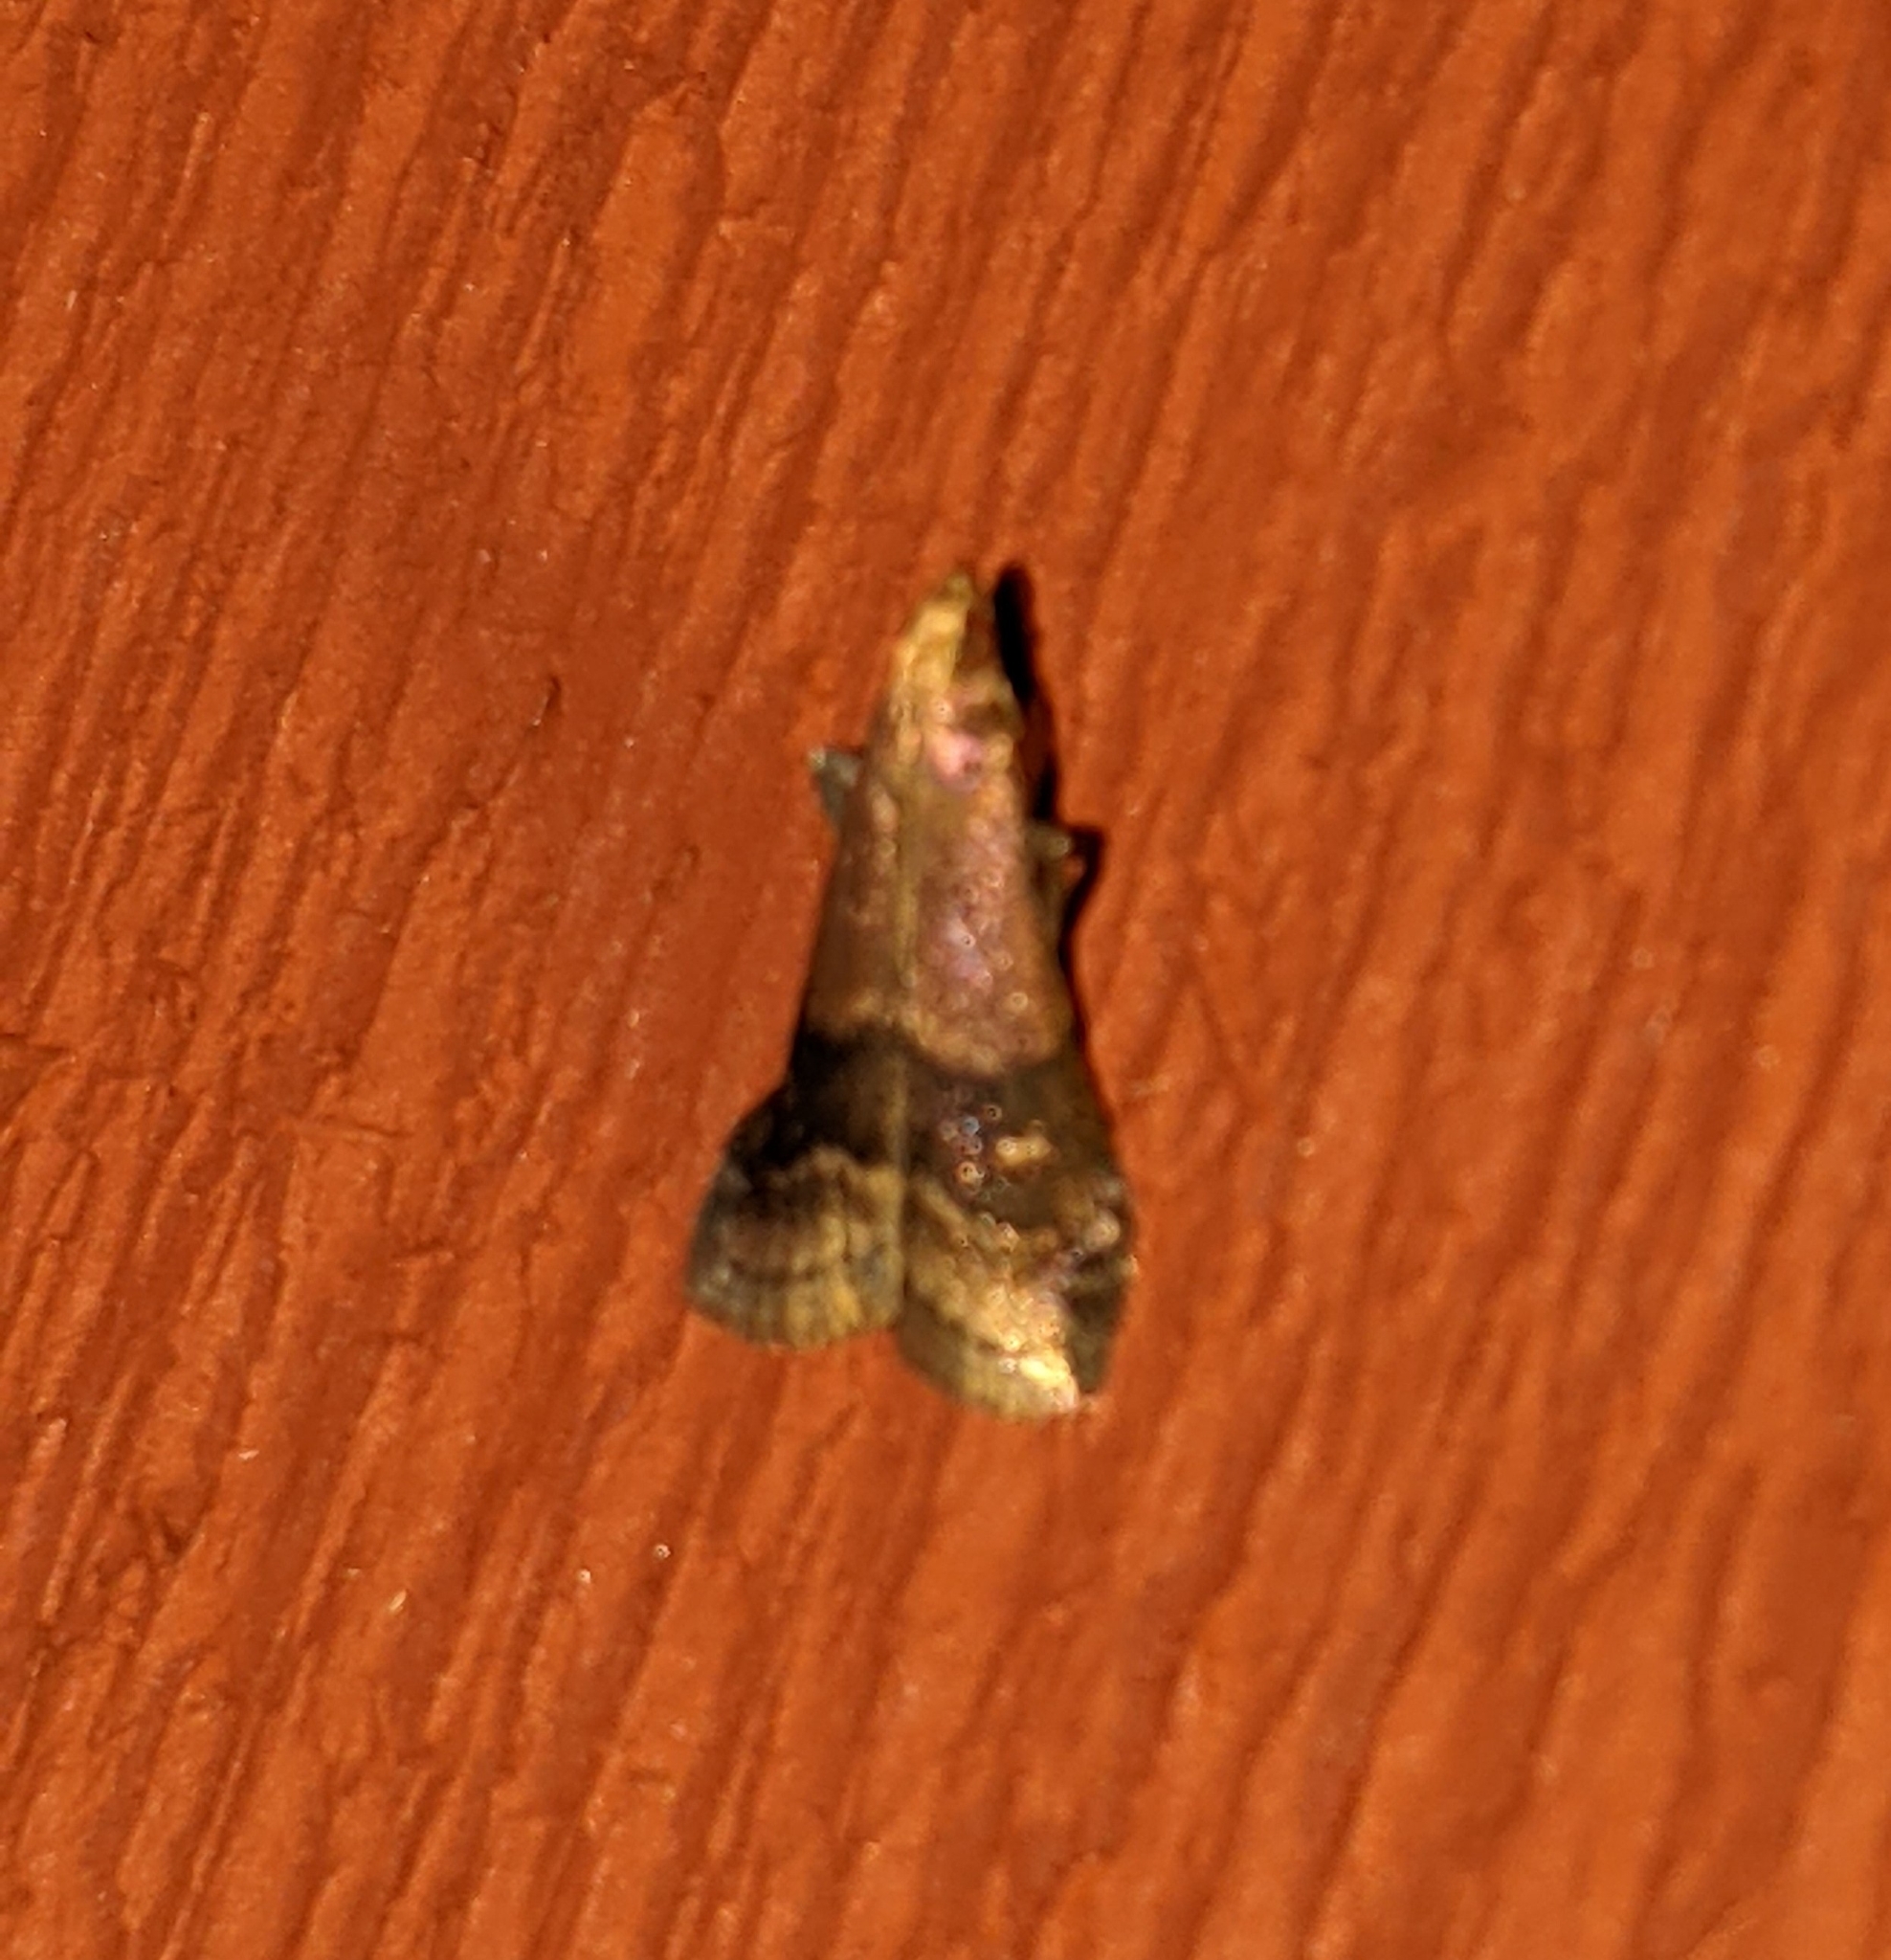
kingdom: Animalia
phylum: Arthropoda
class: Insecta
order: Lepidoptera
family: Pyralidae
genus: Eulogia
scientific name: Eulogia ochrifrontella
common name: Broad-banded eulogia moth
